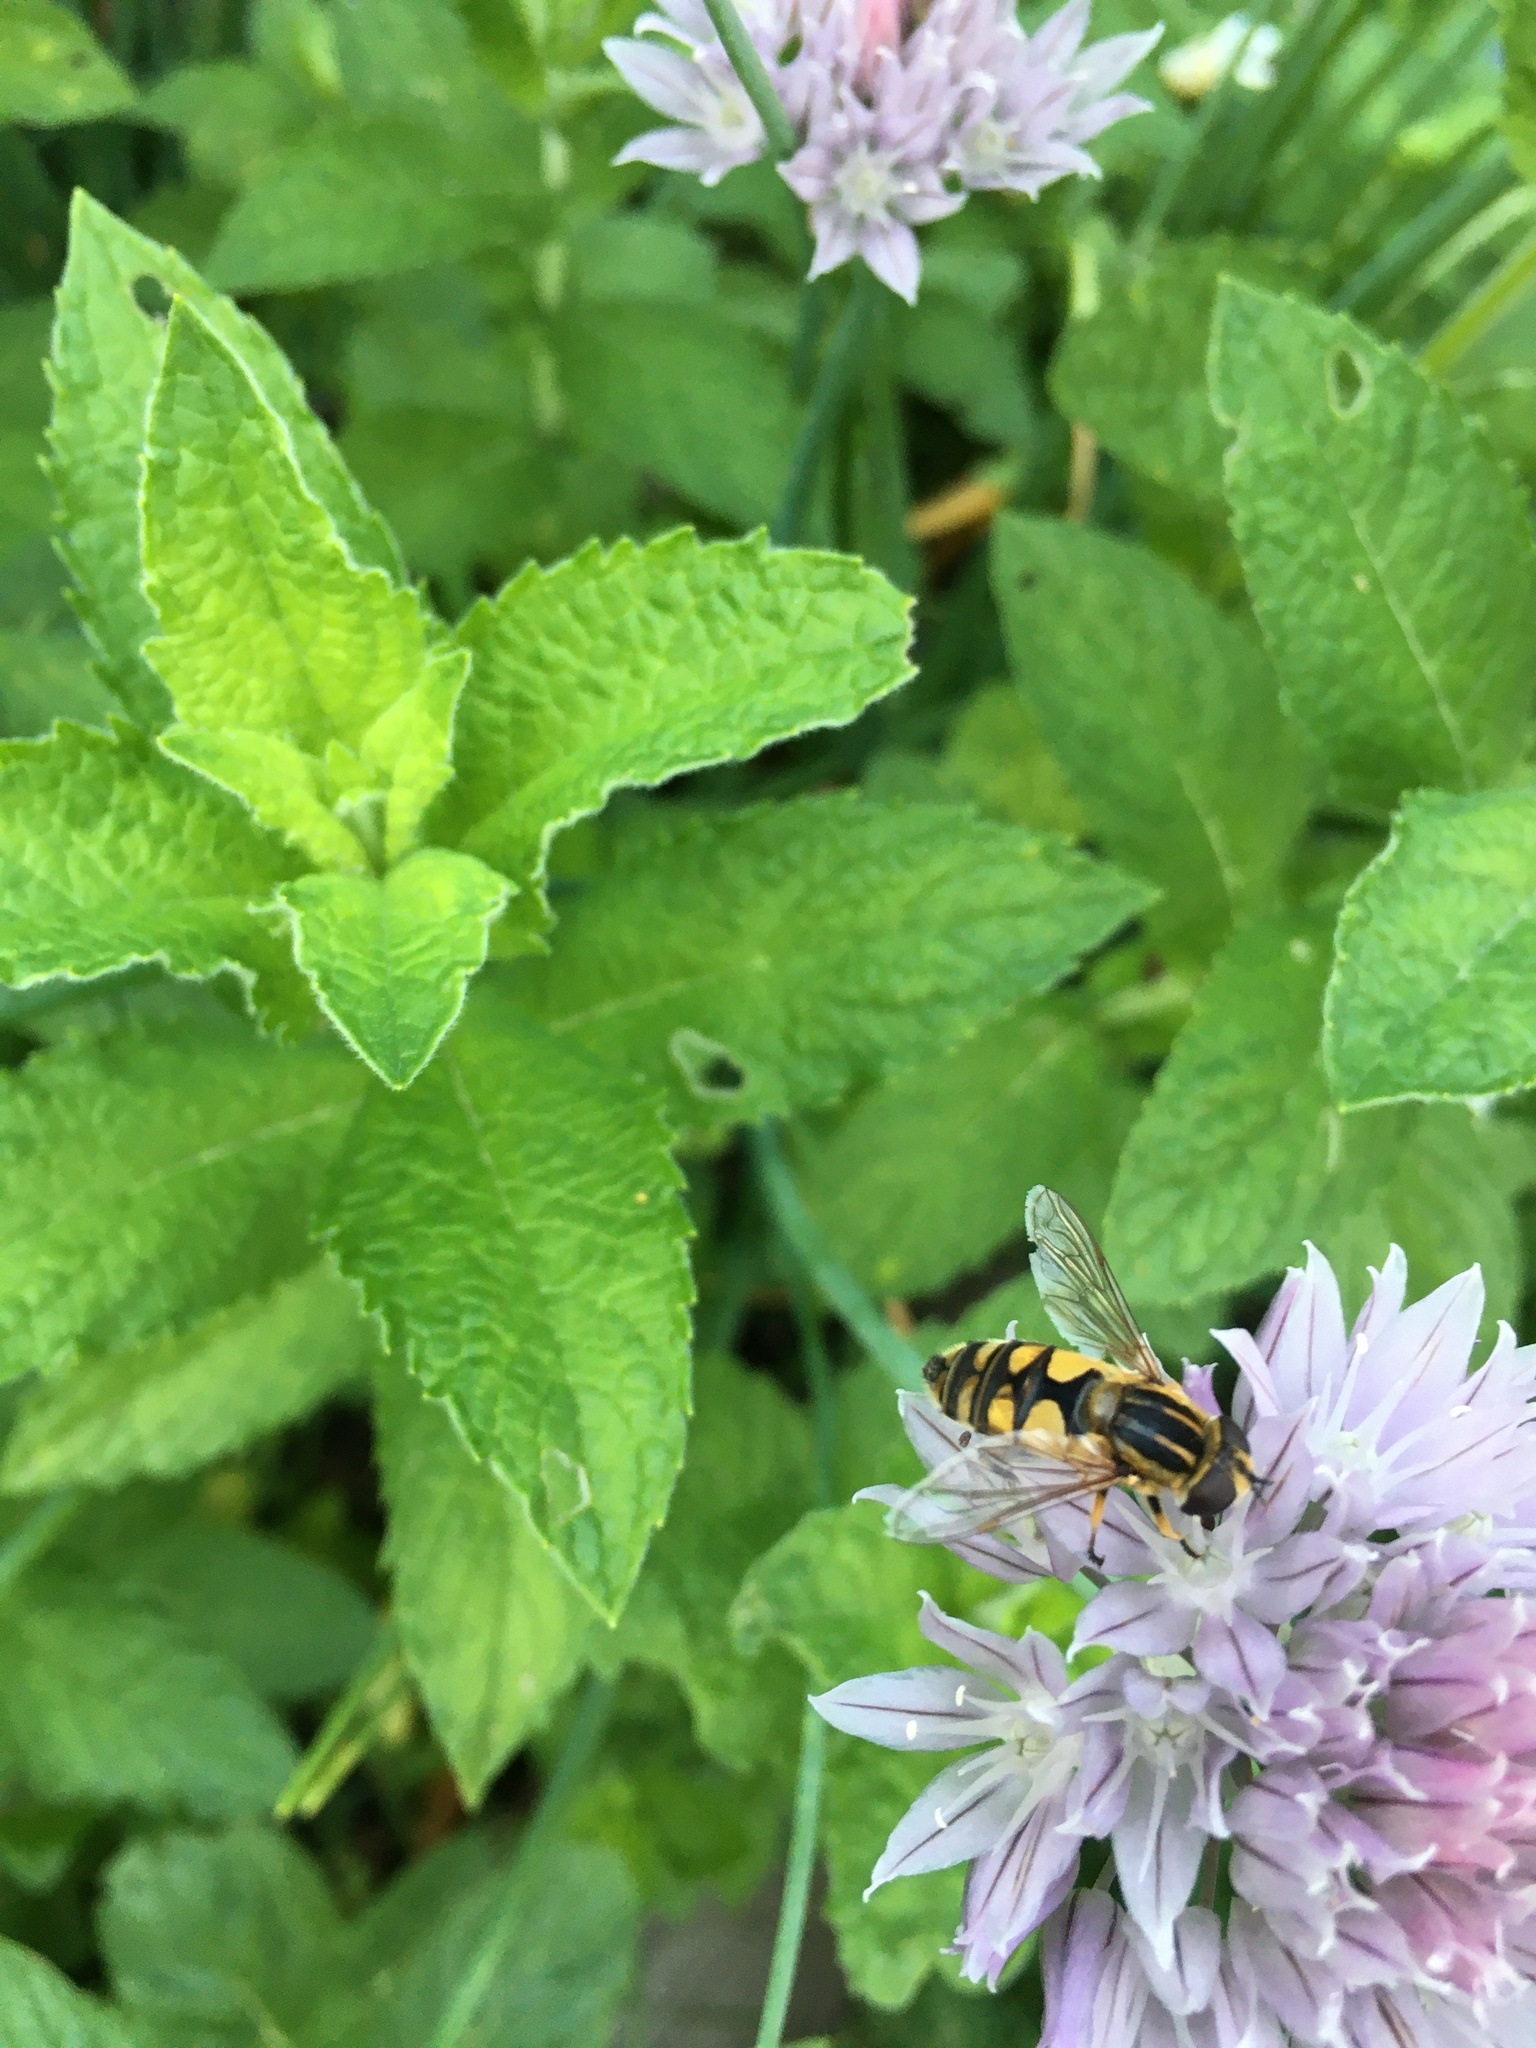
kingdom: Animalia
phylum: Arthropoda
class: Insecta
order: Diptera
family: Syrphidae
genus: Helophilus
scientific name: Helophilus hybridus
